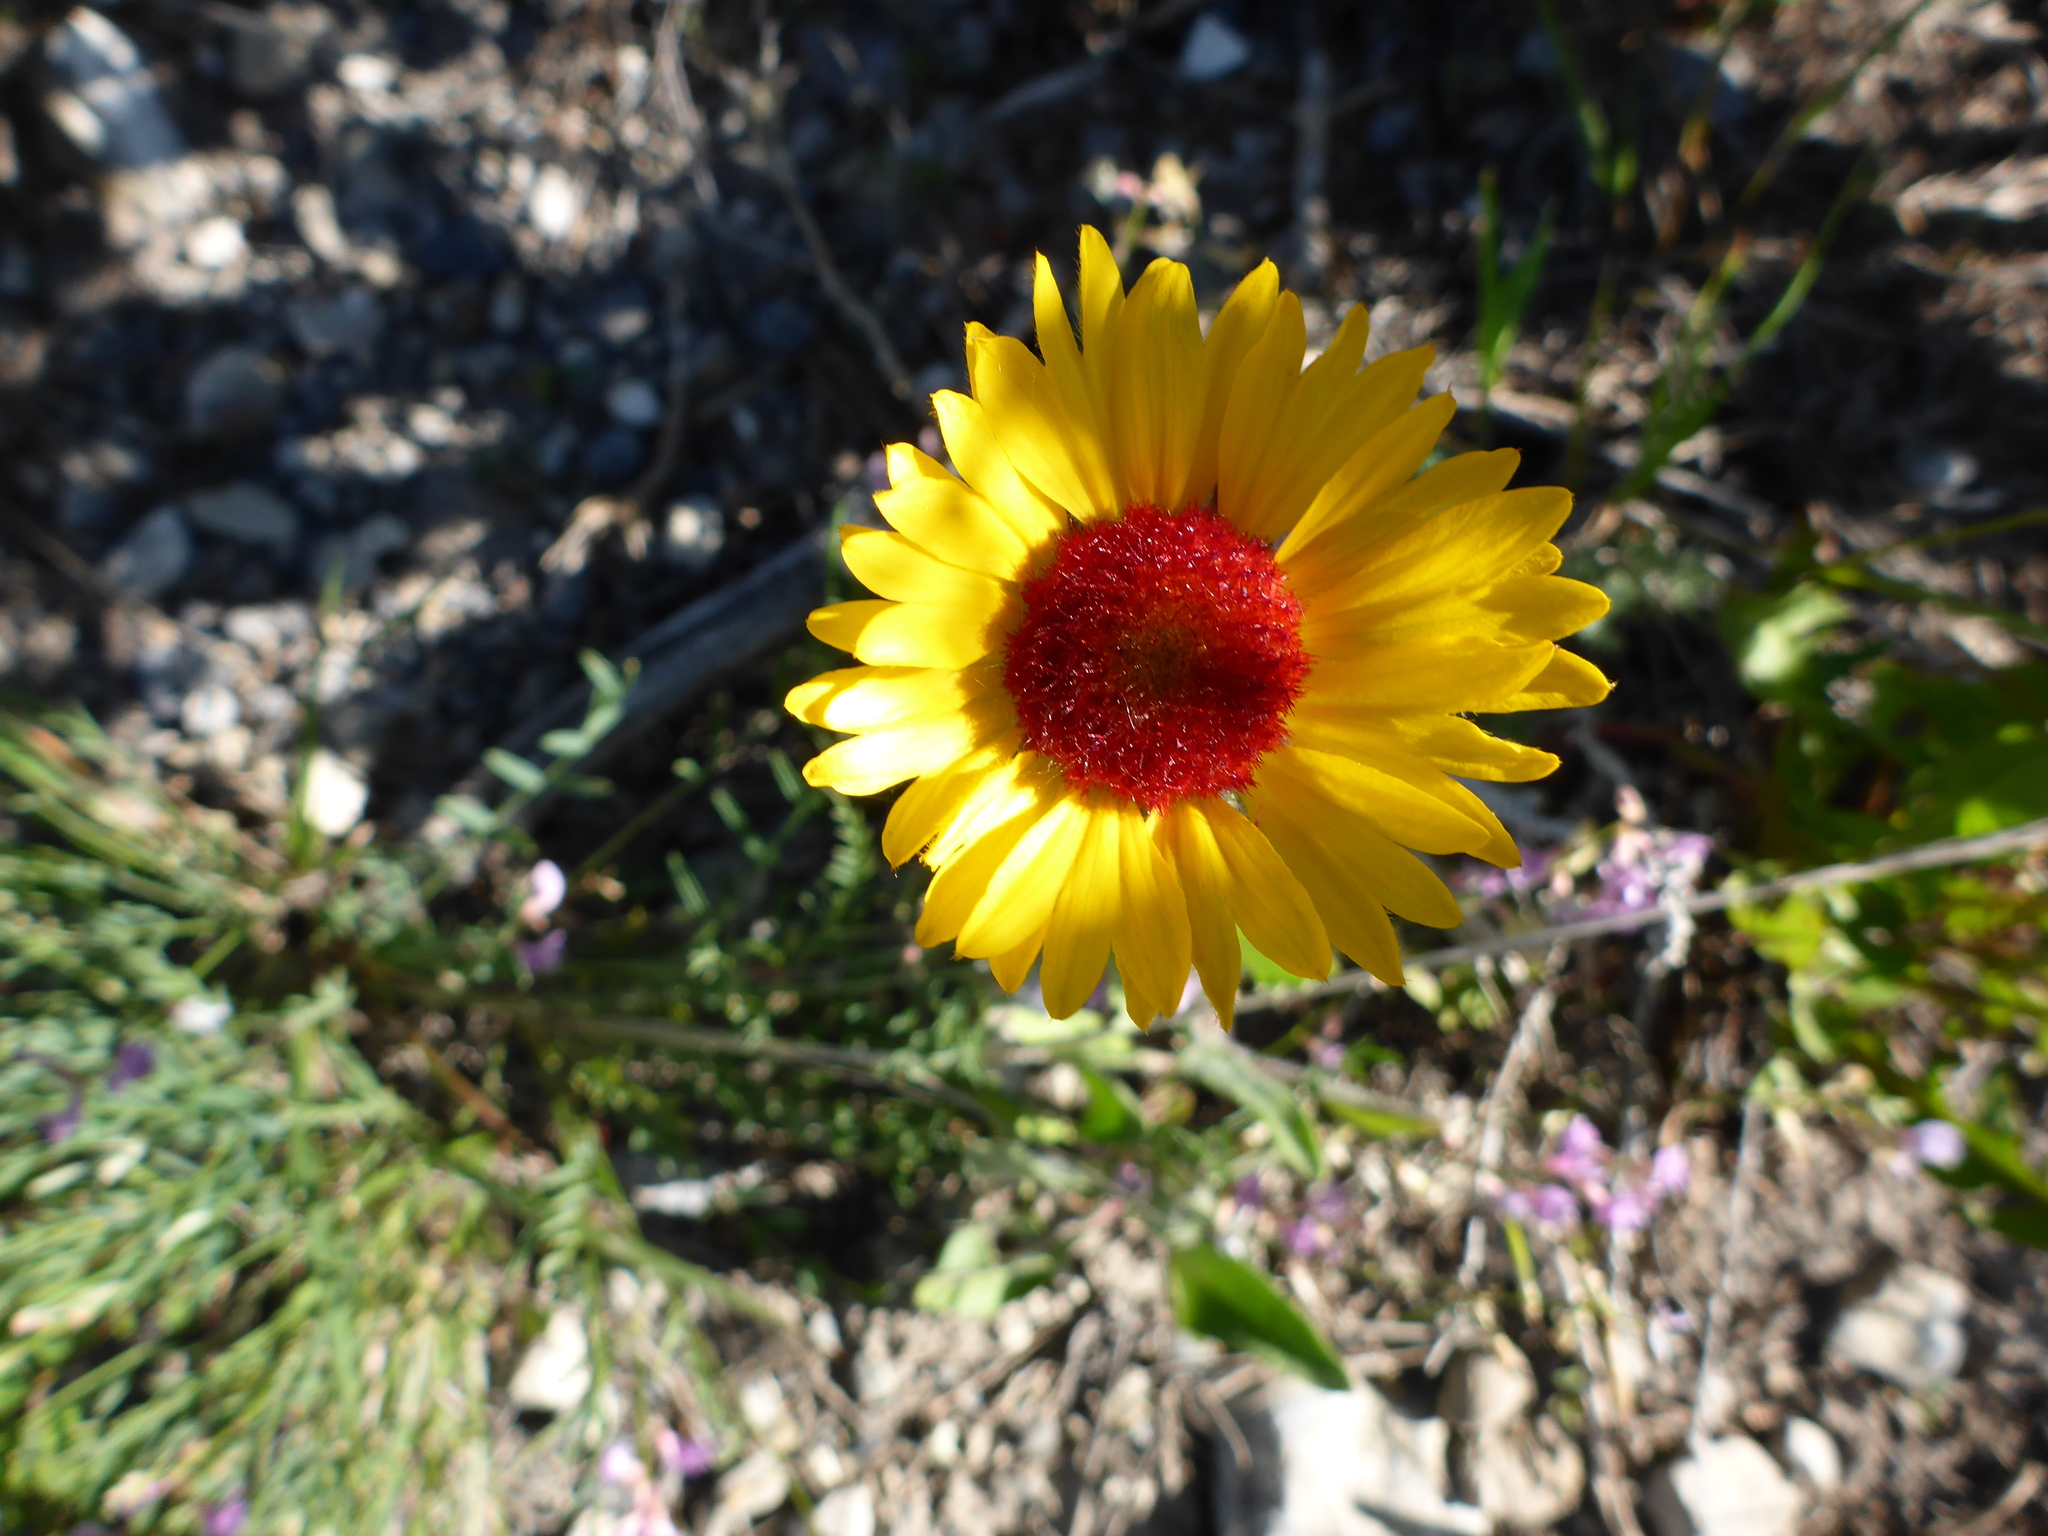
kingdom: Plantae
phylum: Tracheophyta
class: Magnoliopsida
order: Asterales
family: Asteraceae
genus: Gaillardia
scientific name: Gaillardia aristata
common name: Blanket-flower
